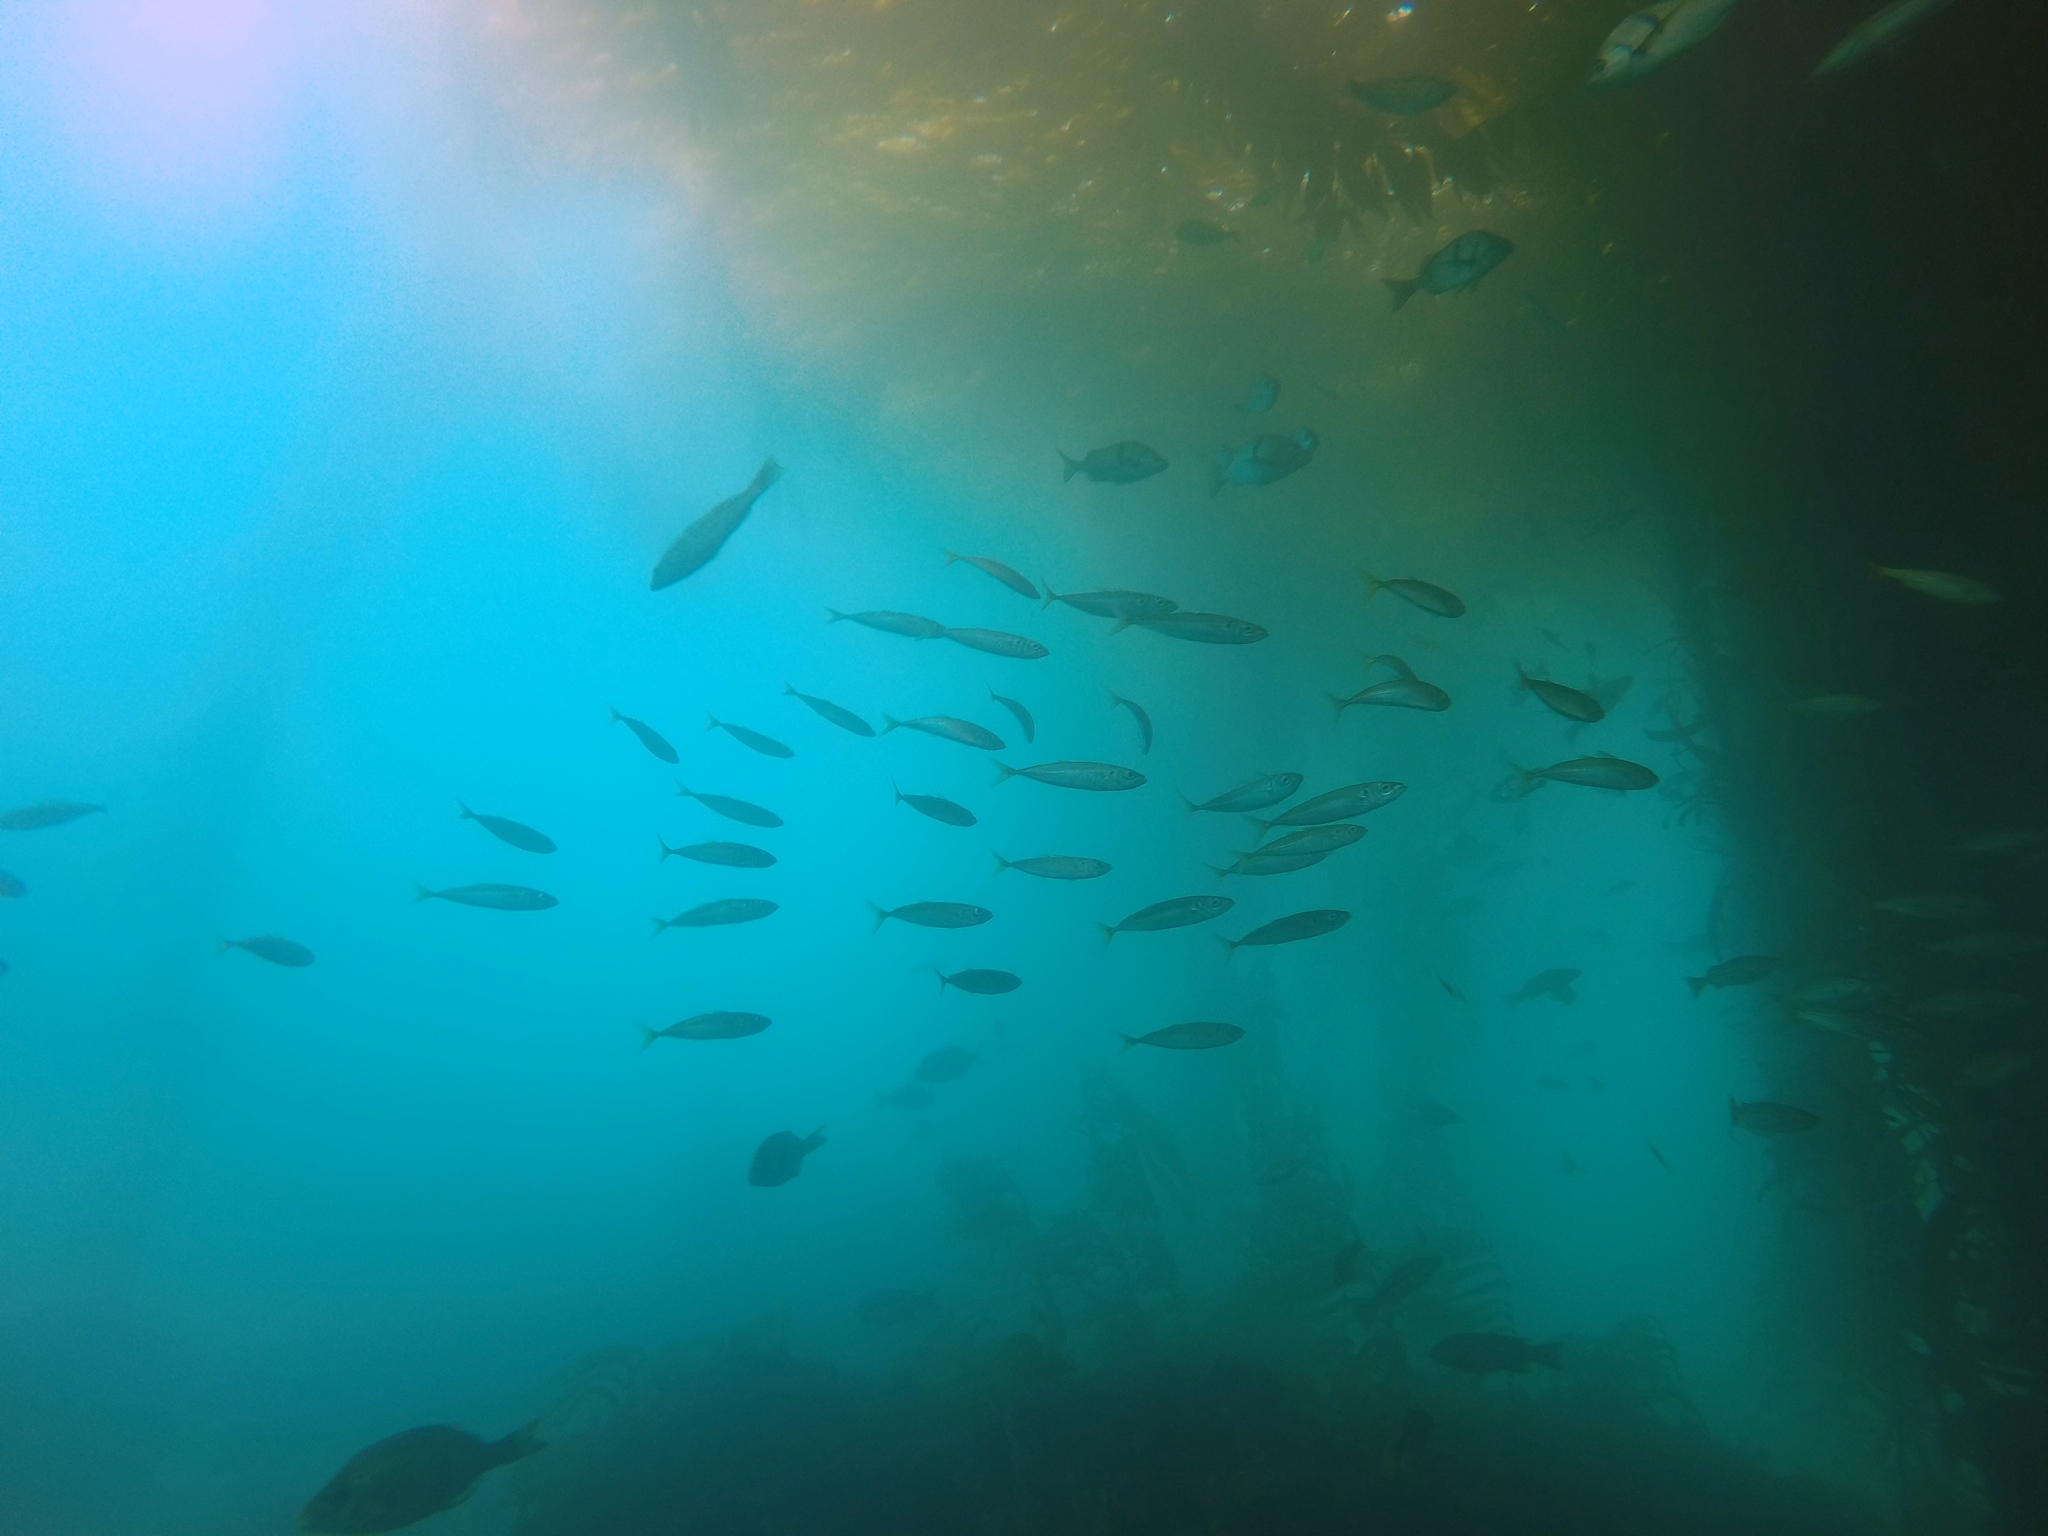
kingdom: Animalia
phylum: Chordata
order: Perciformes
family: Carangidae
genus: Trachurus
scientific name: Trachurus symmetricus
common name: Jack mackerel
